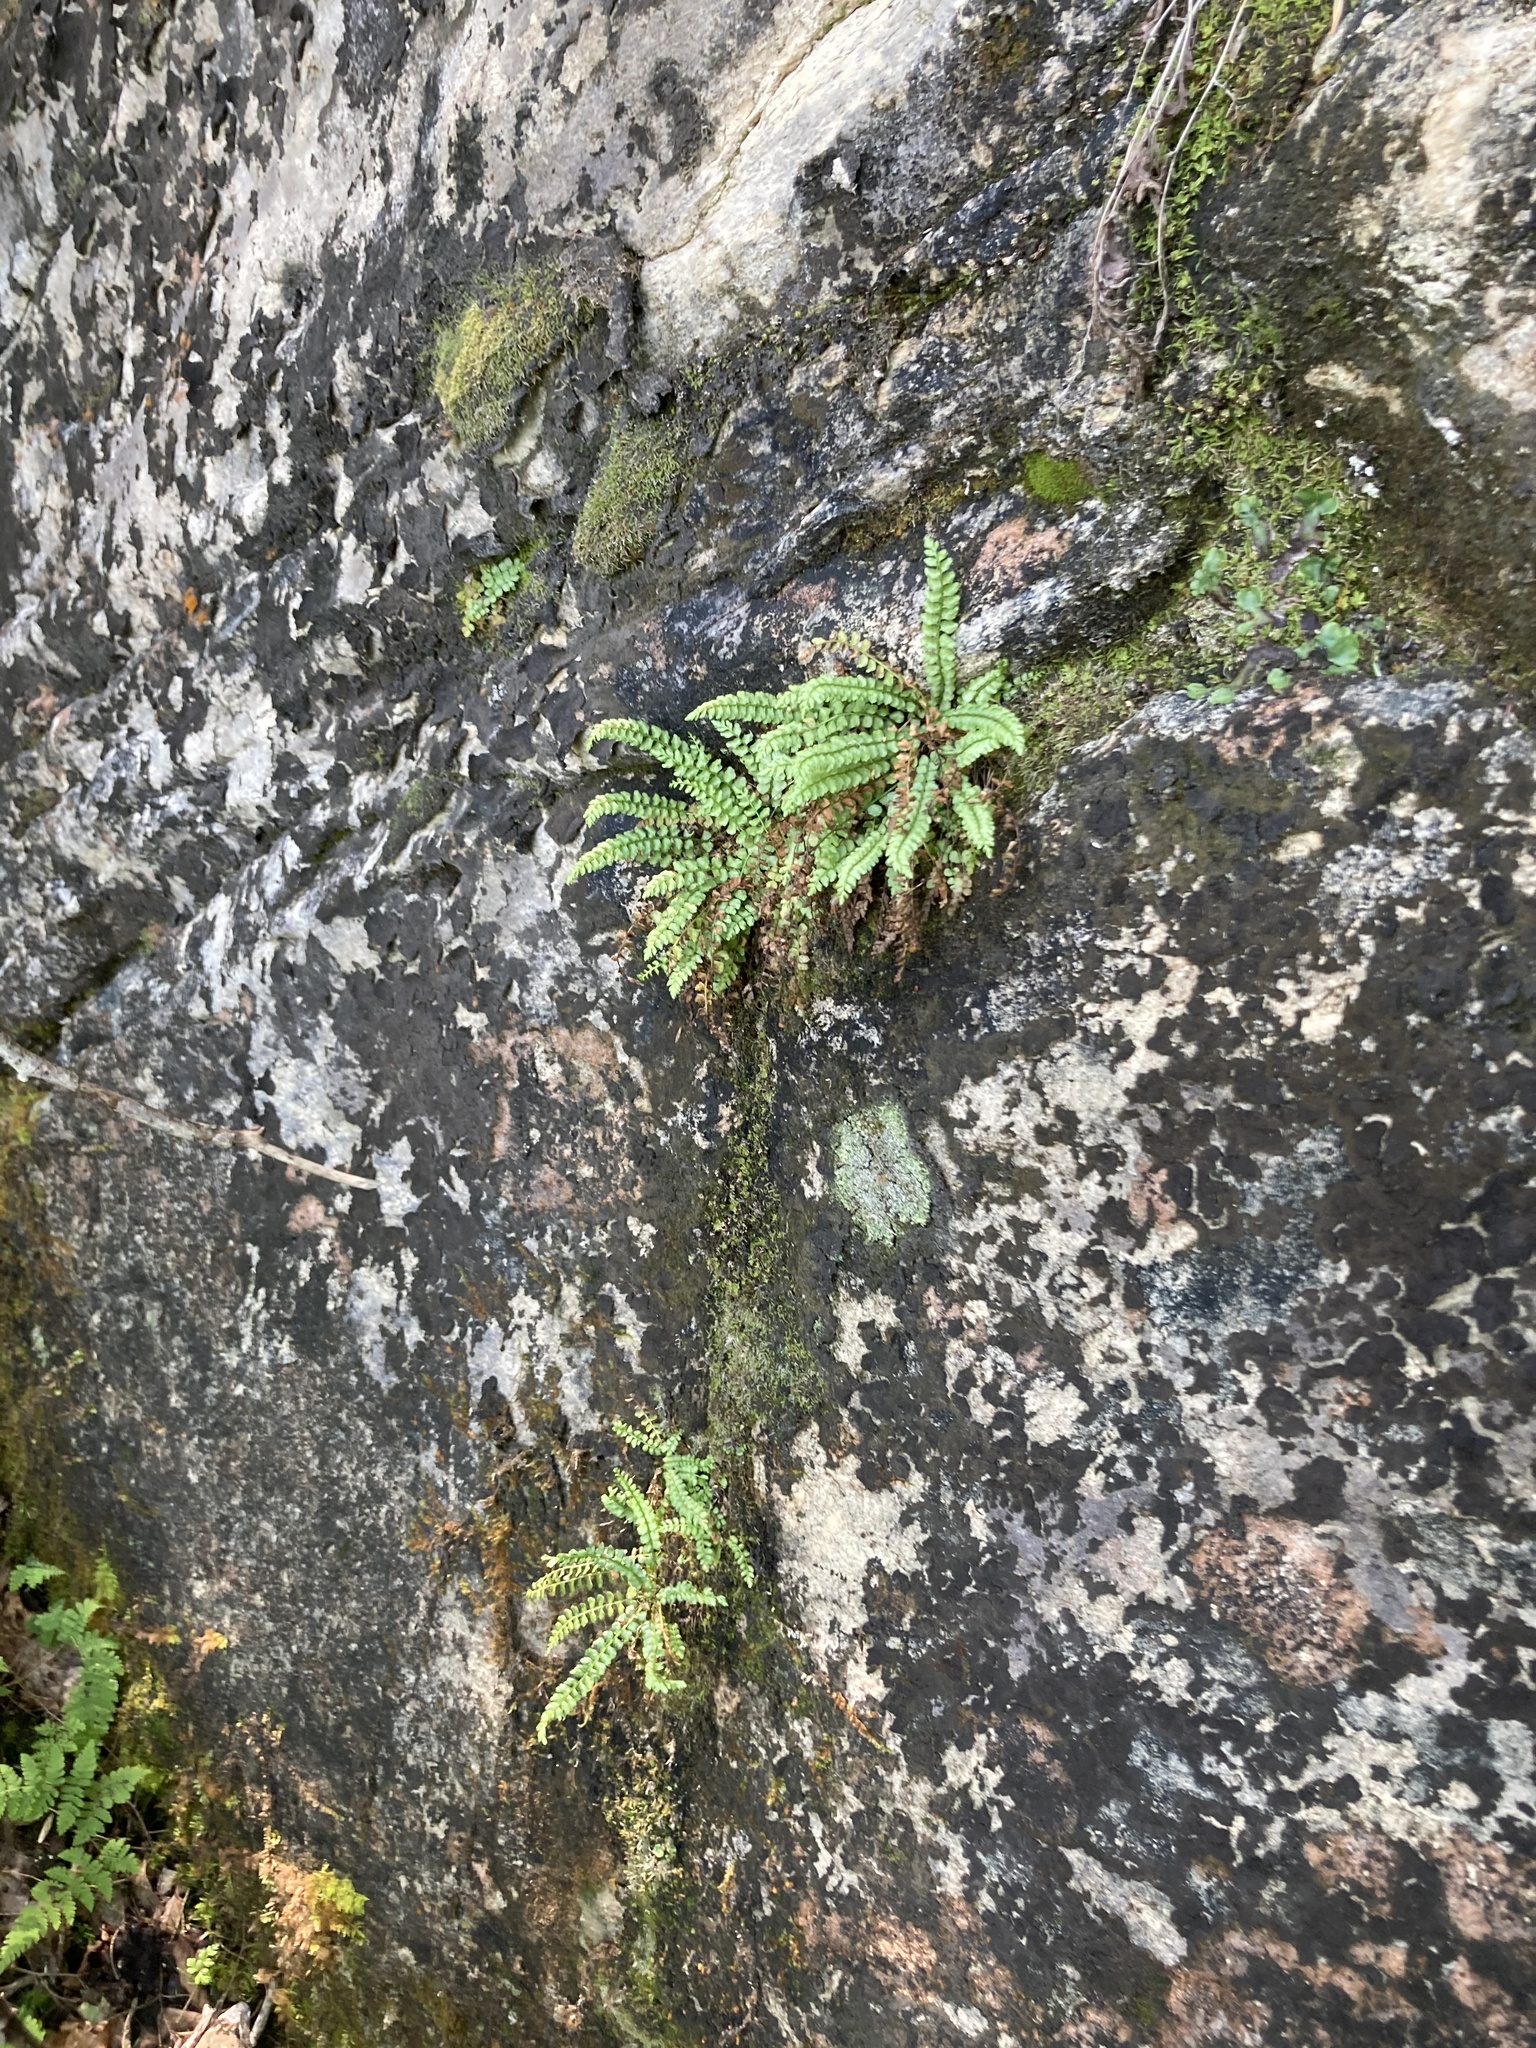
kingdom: Plantae
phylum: Tracheophyta
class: Polypodiopsida
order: Polypodiales
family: Aspleniaceae
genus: Asplenium
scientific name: Asplenium viride
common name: Green spleenwort
